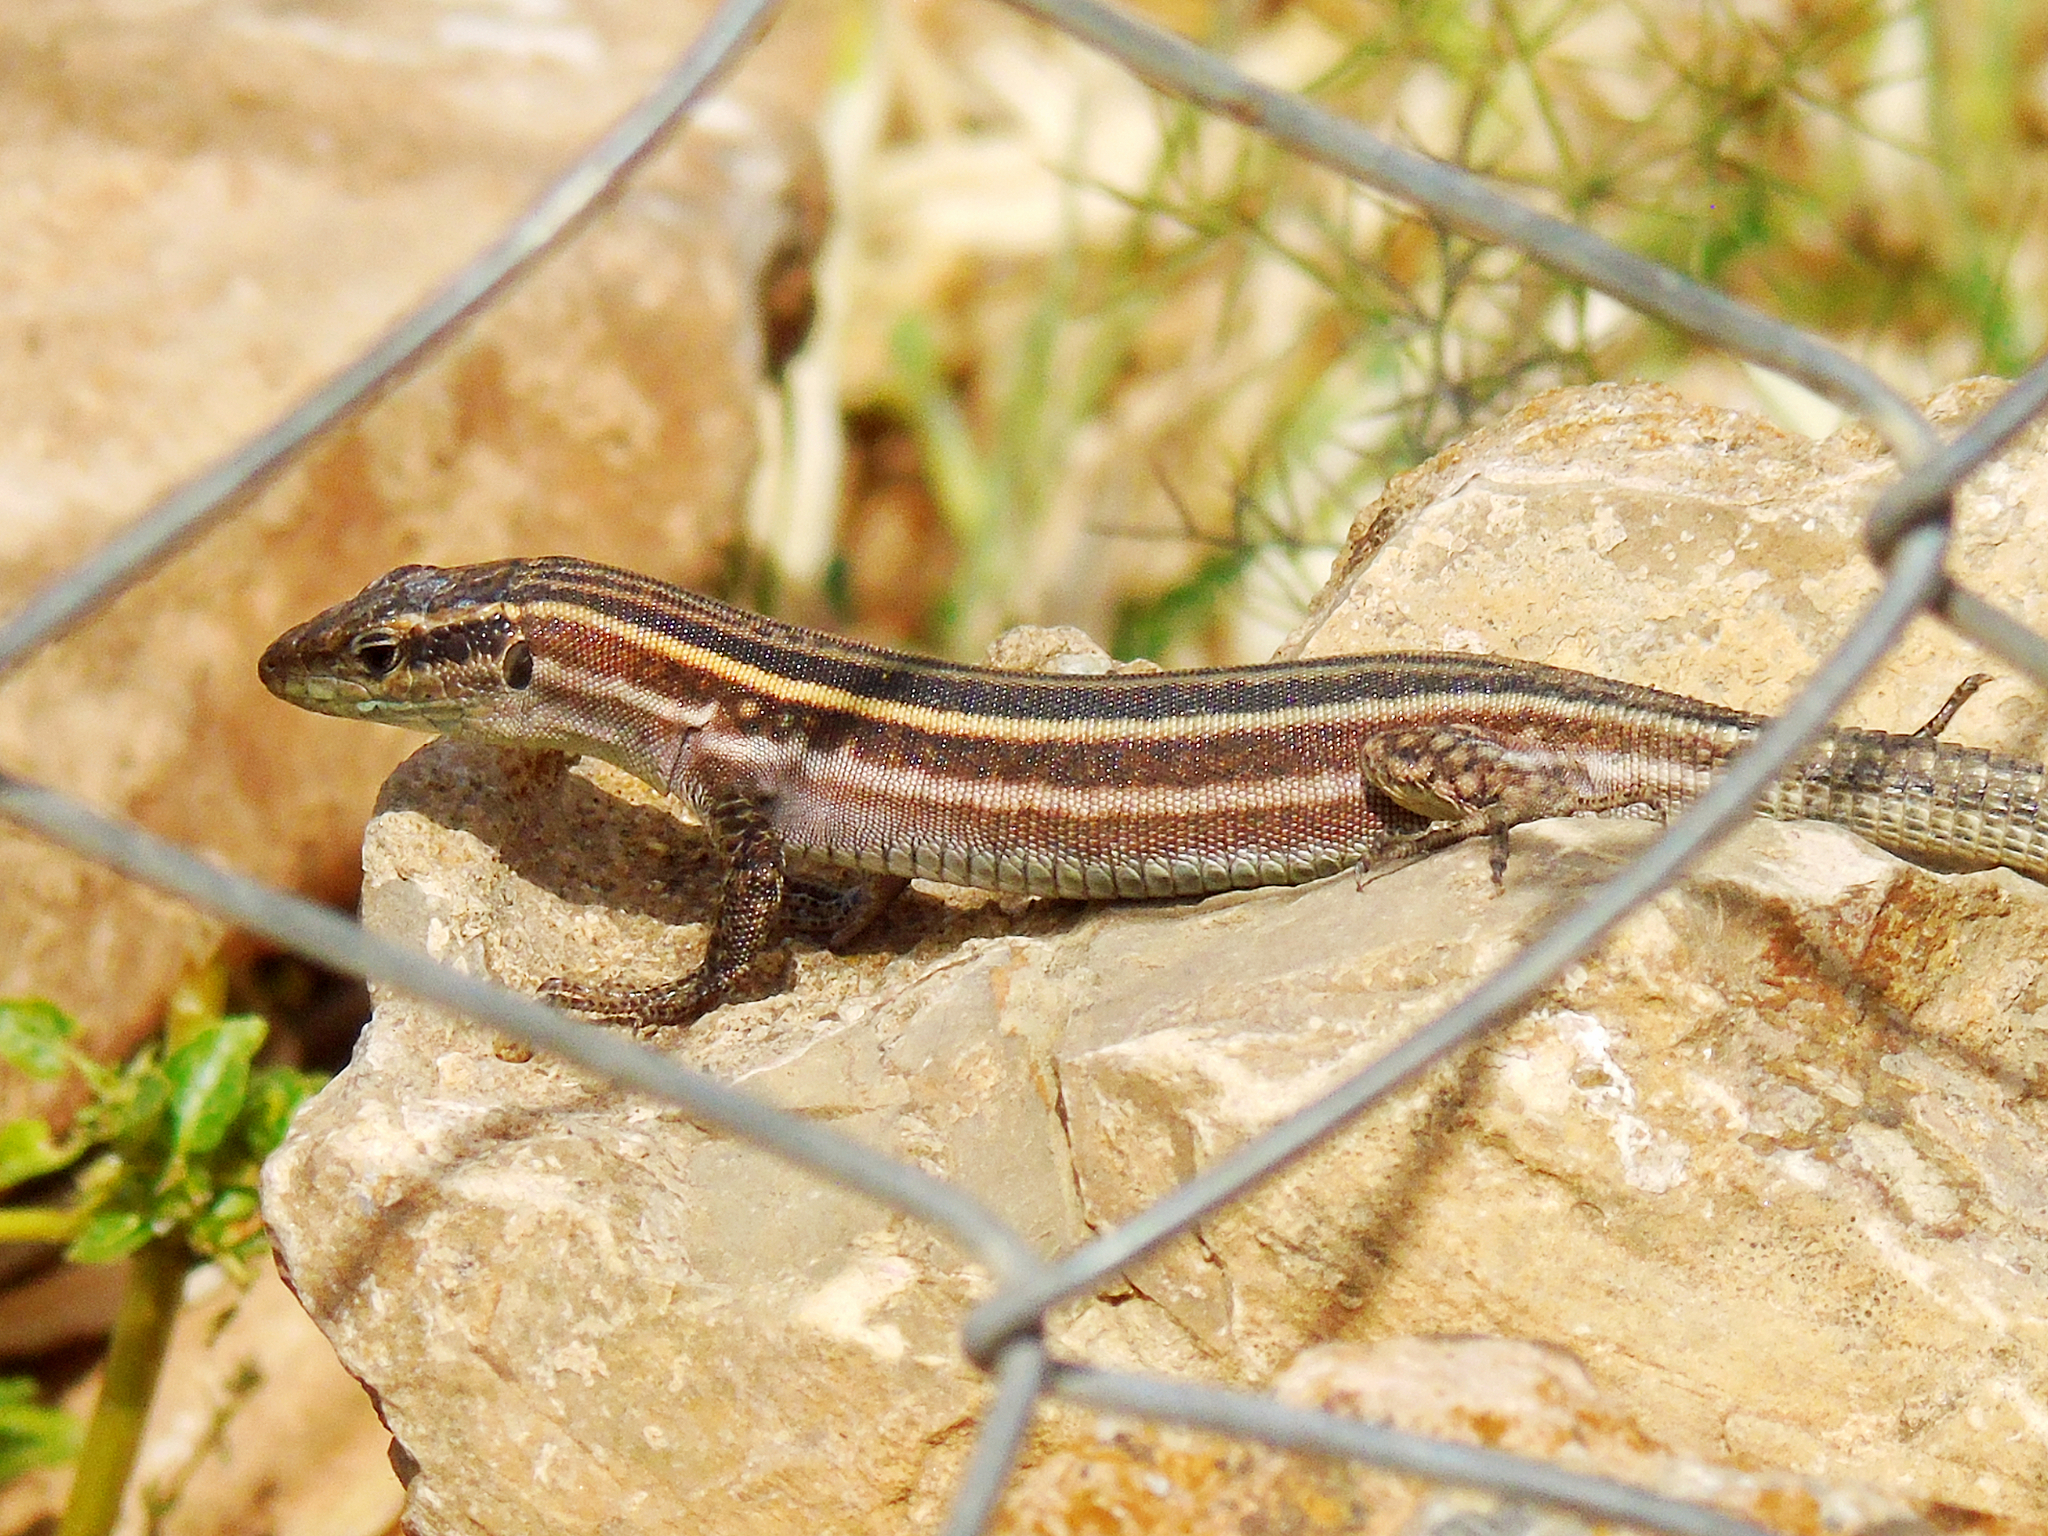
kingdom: Animalia
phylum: Chordata
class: Squamata
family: Lacertidae
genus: Podarcis
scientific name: Podarcis peloponnesiacus
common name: Peloponnese wall lizard
